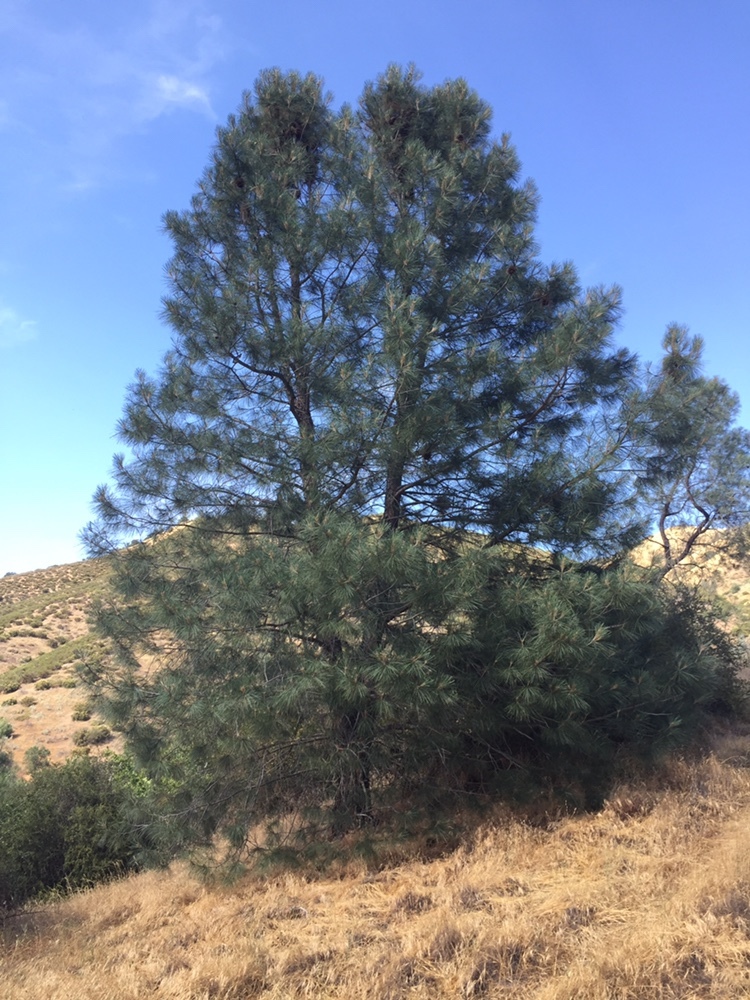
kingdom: Plantae
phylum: Tracheophyta
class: Pinopsida
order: Pinales
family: Pinaceae
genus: Pinus
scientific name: Pinus sabiniana
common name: Bull pine
